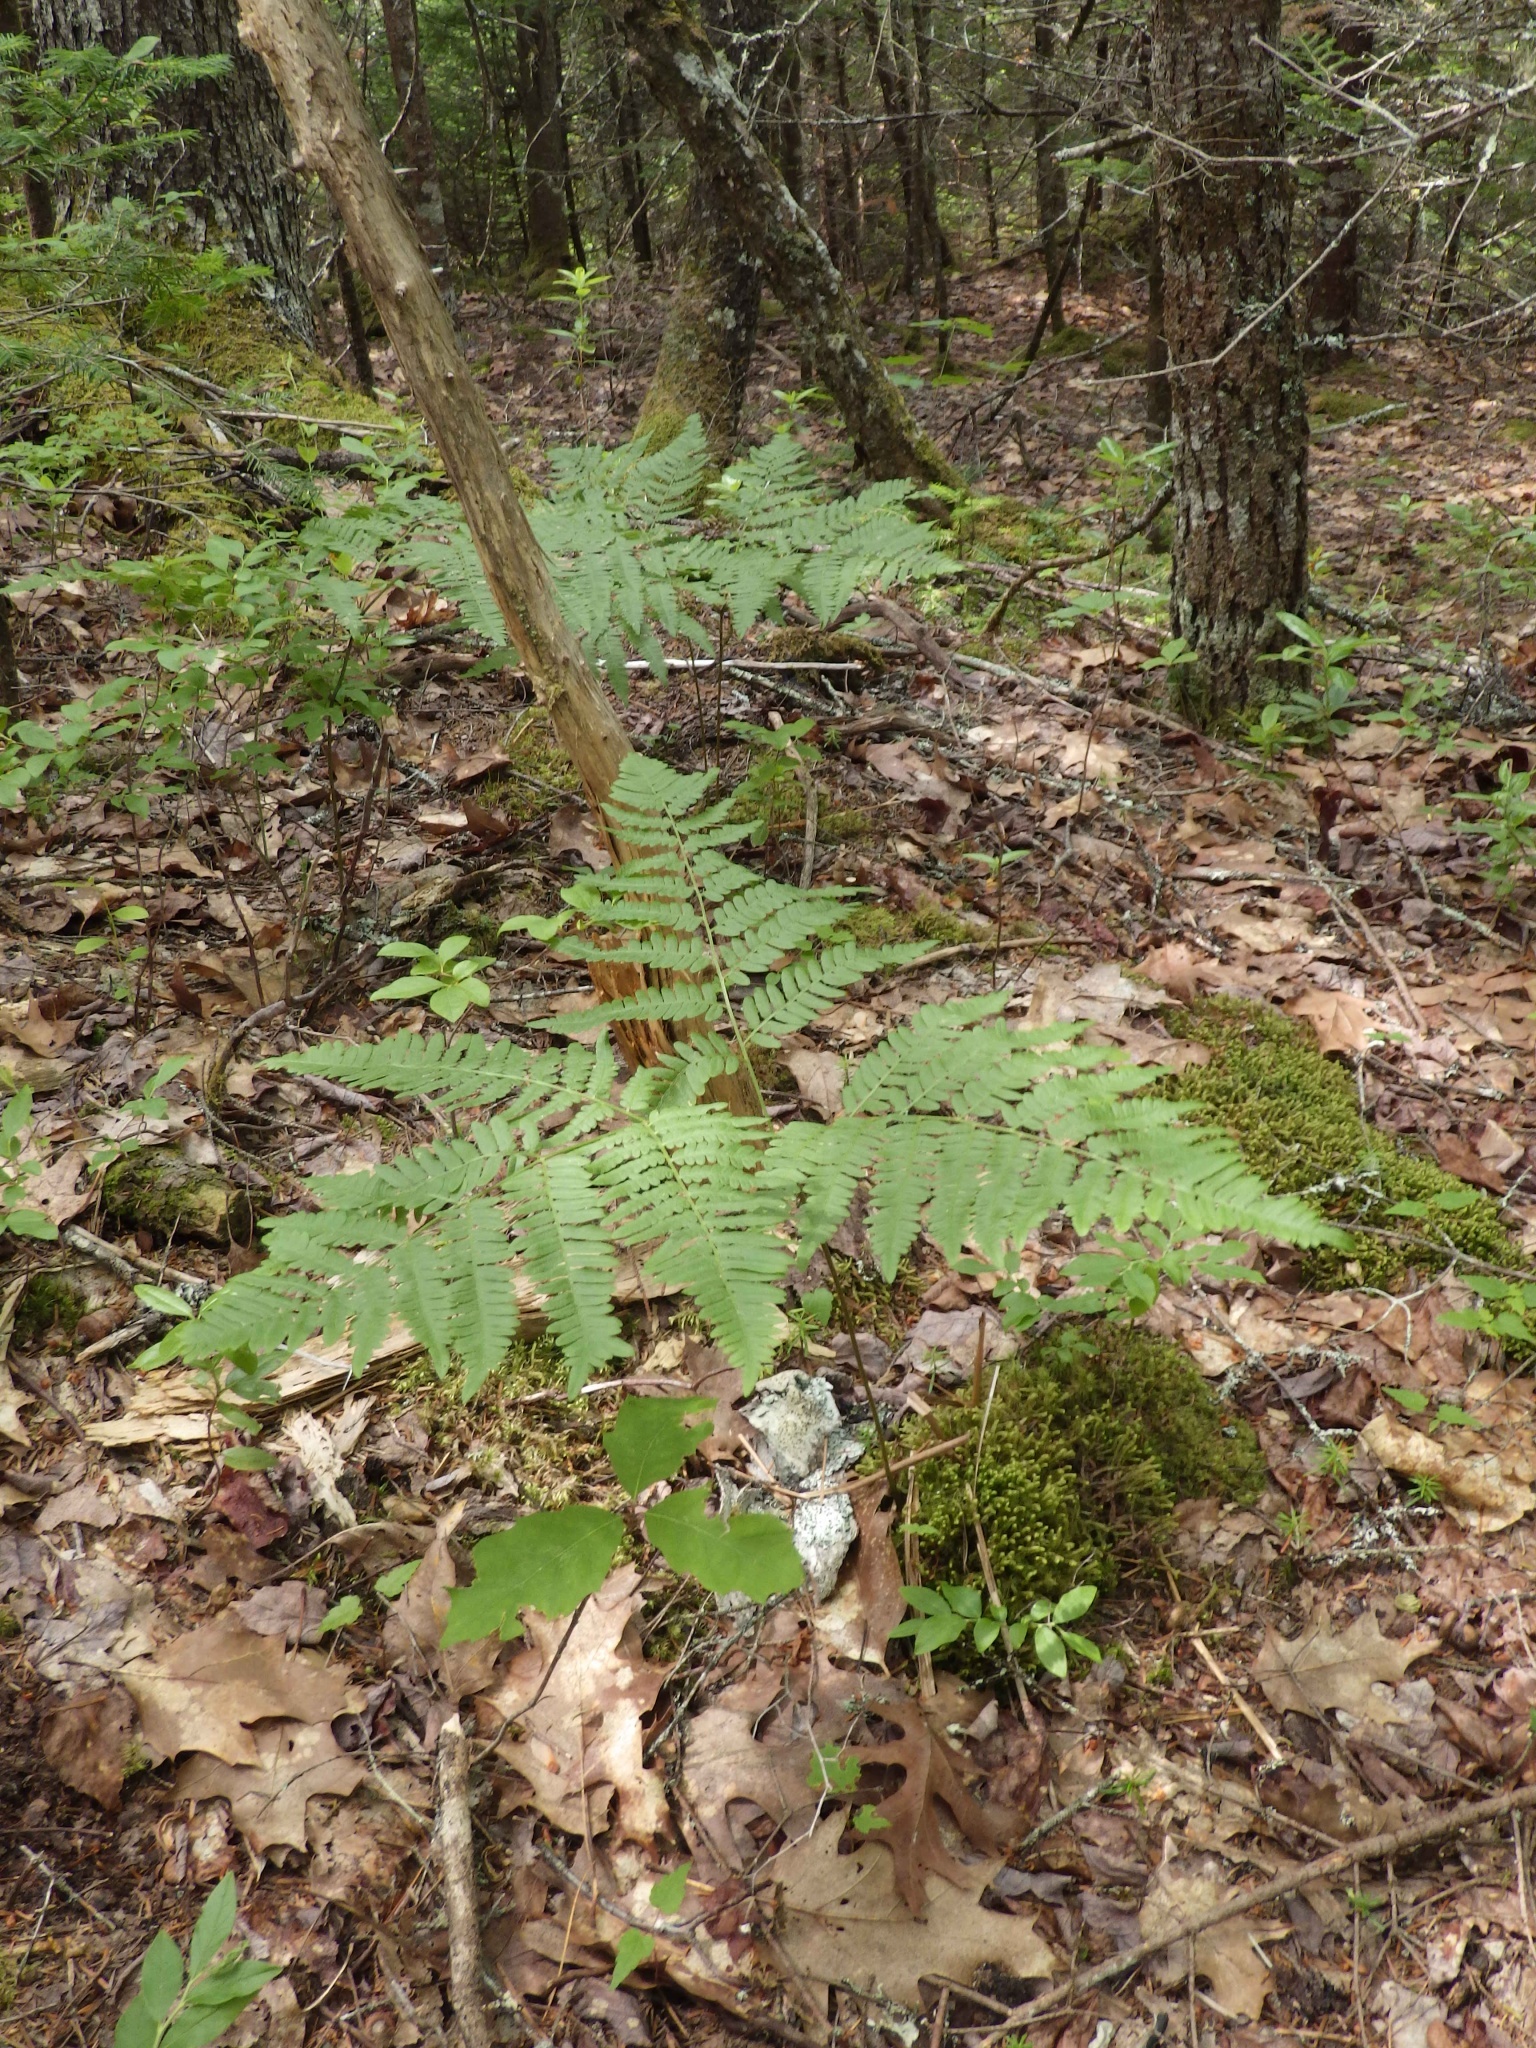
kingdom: Plantae
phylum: Tracheophyta
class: Polypodiopsida
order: Polypodiales
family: Dennstaedtiaceae
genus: Pteridium
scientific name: Pteridium aquilinum
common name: Bracken
